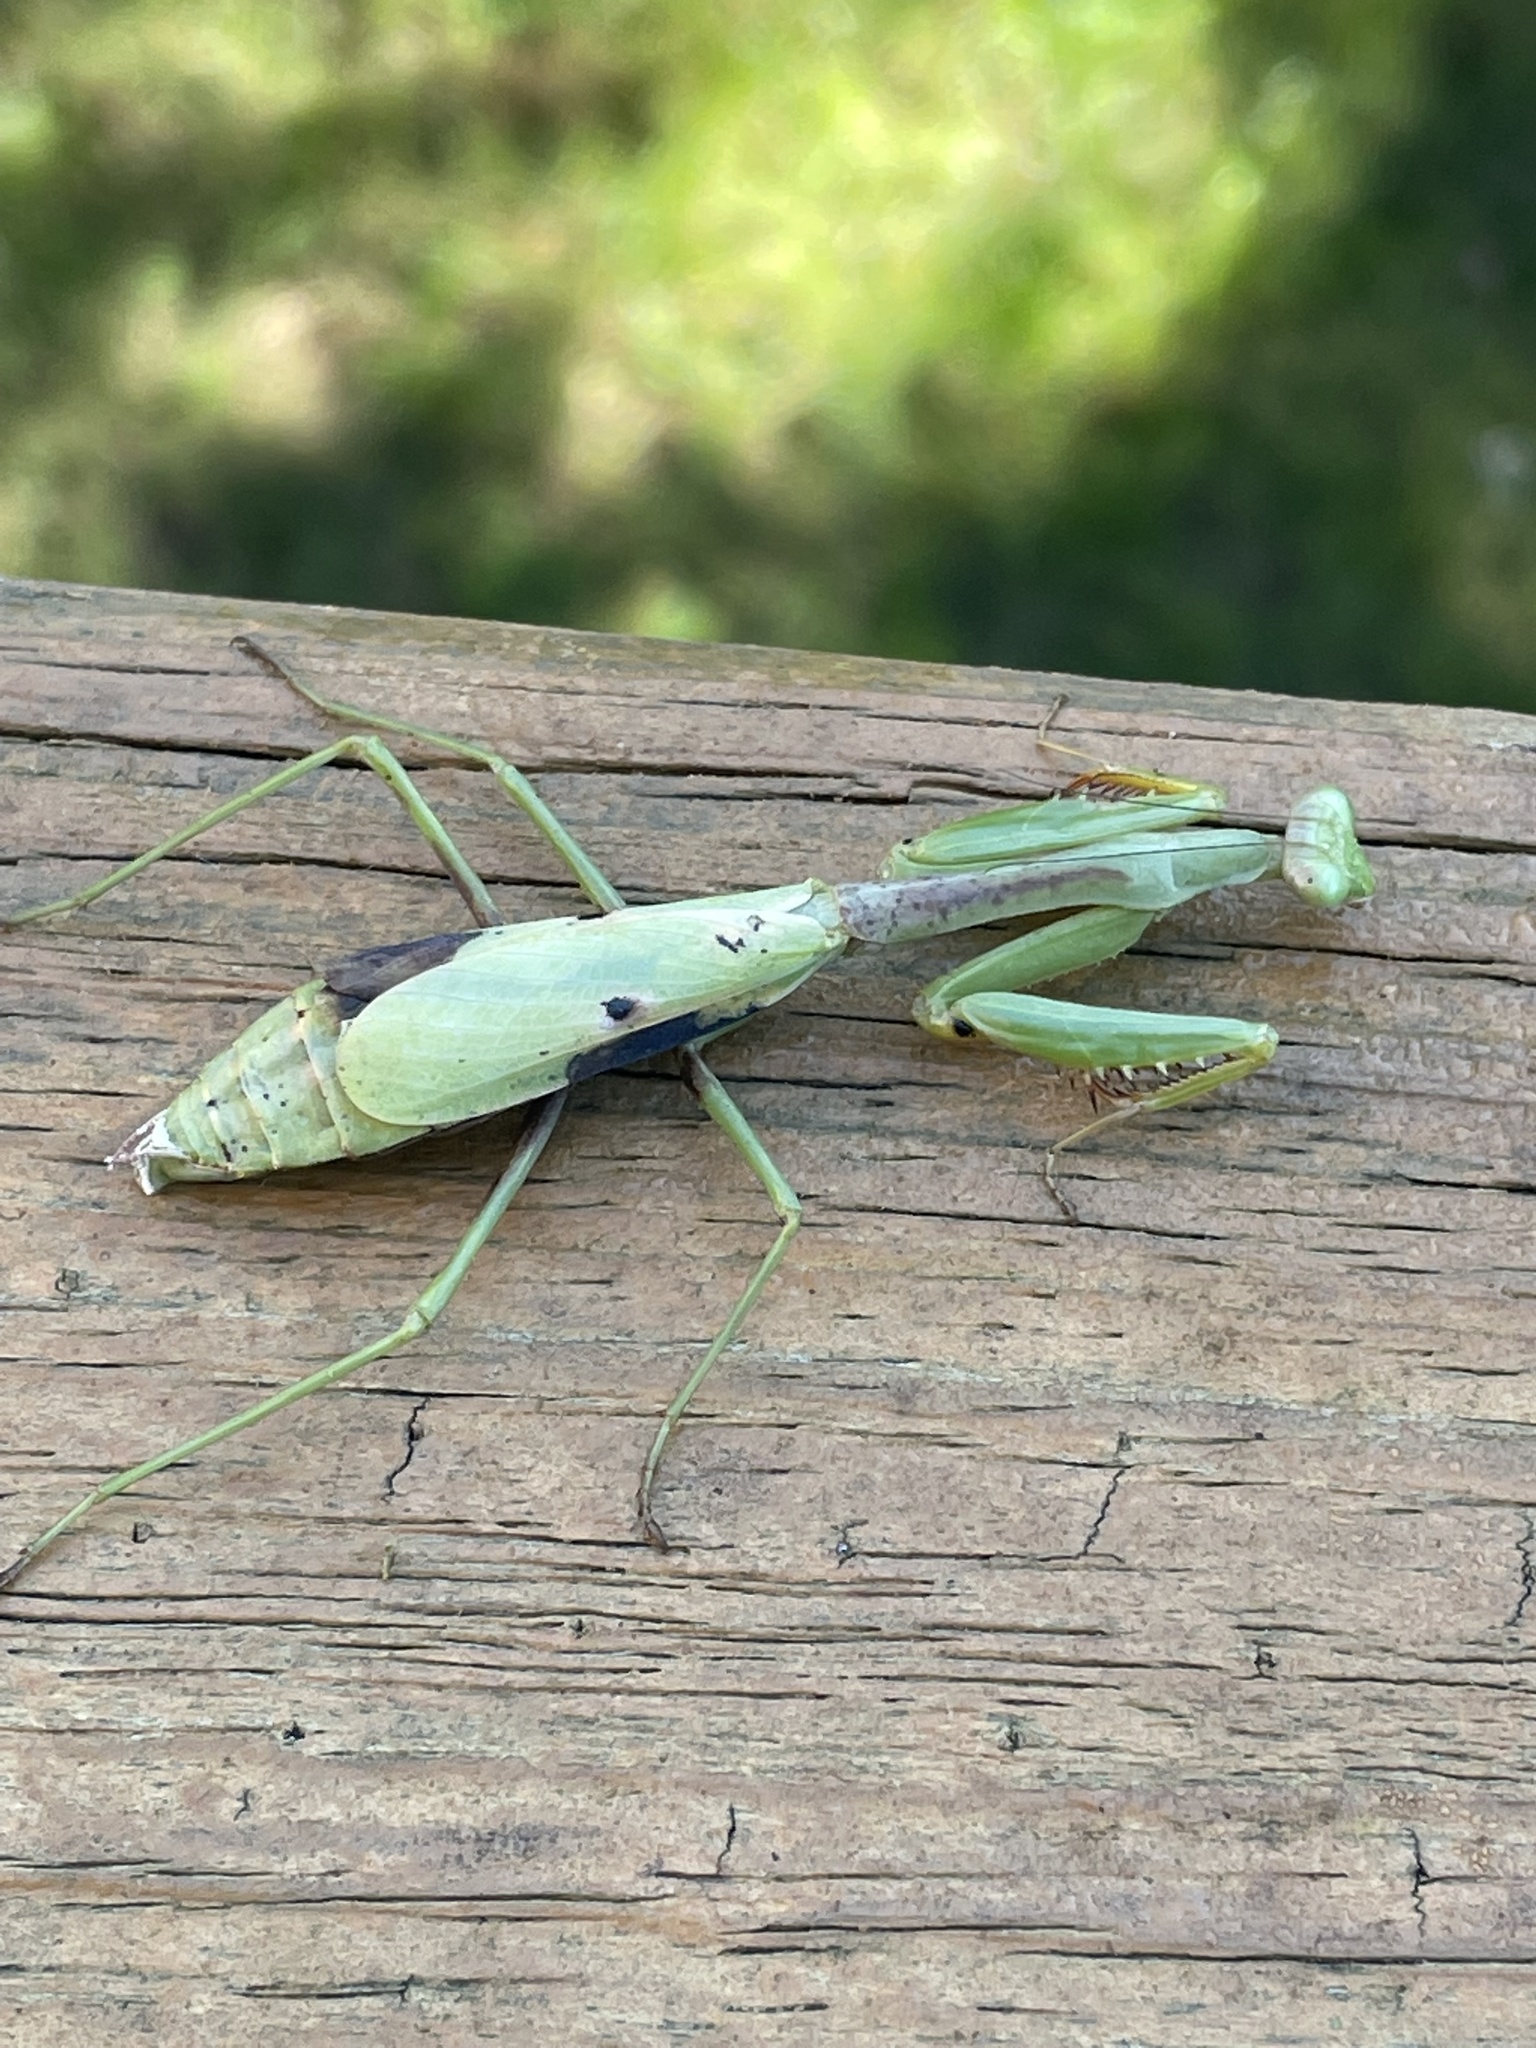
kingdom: Animalia
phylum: Arthropoda
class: Insecta
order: Mantodea
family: Mantidae
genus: Stagmomantis
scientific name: Stagmomantis carolina
